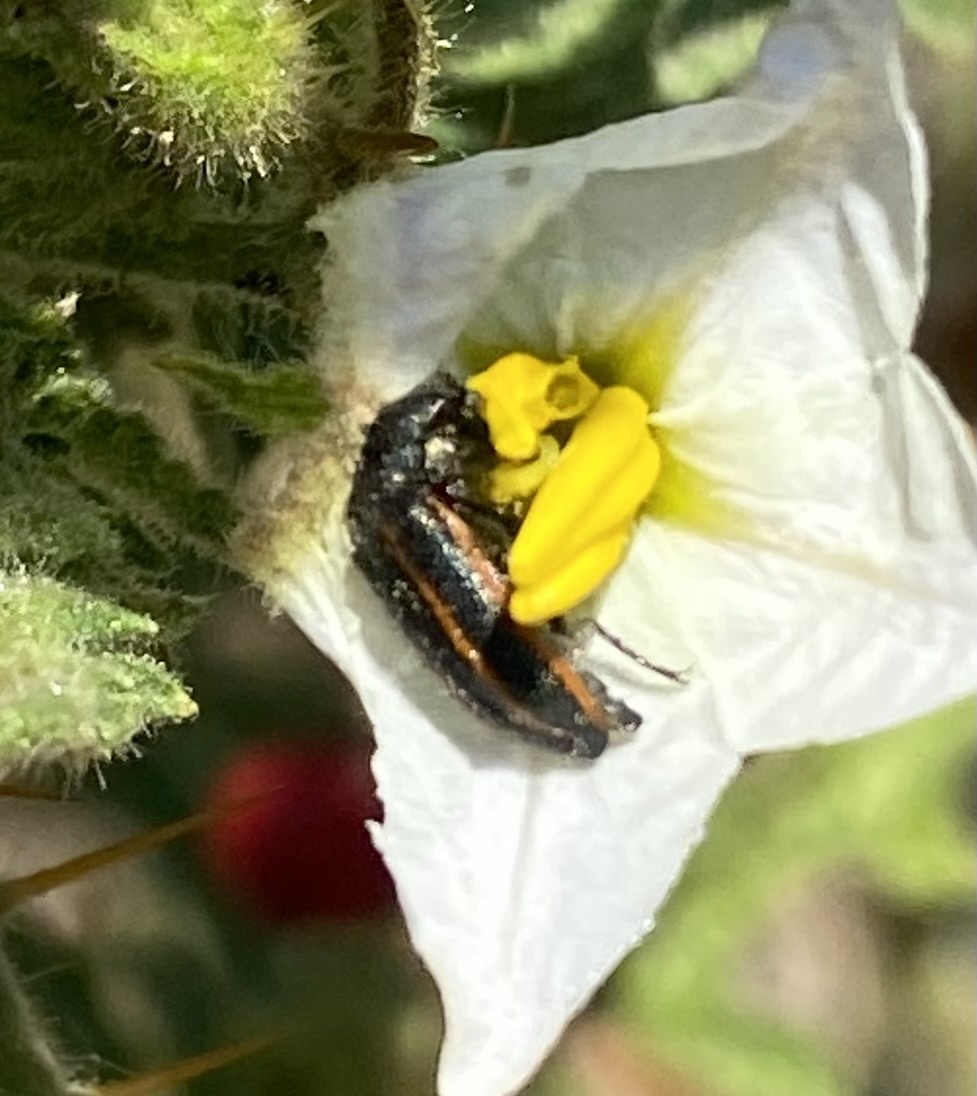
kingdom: Animalia
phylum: Arthropoda
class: Insecta
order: Coleoptera
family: Melyridae
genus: Astylus
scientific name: Astylus
